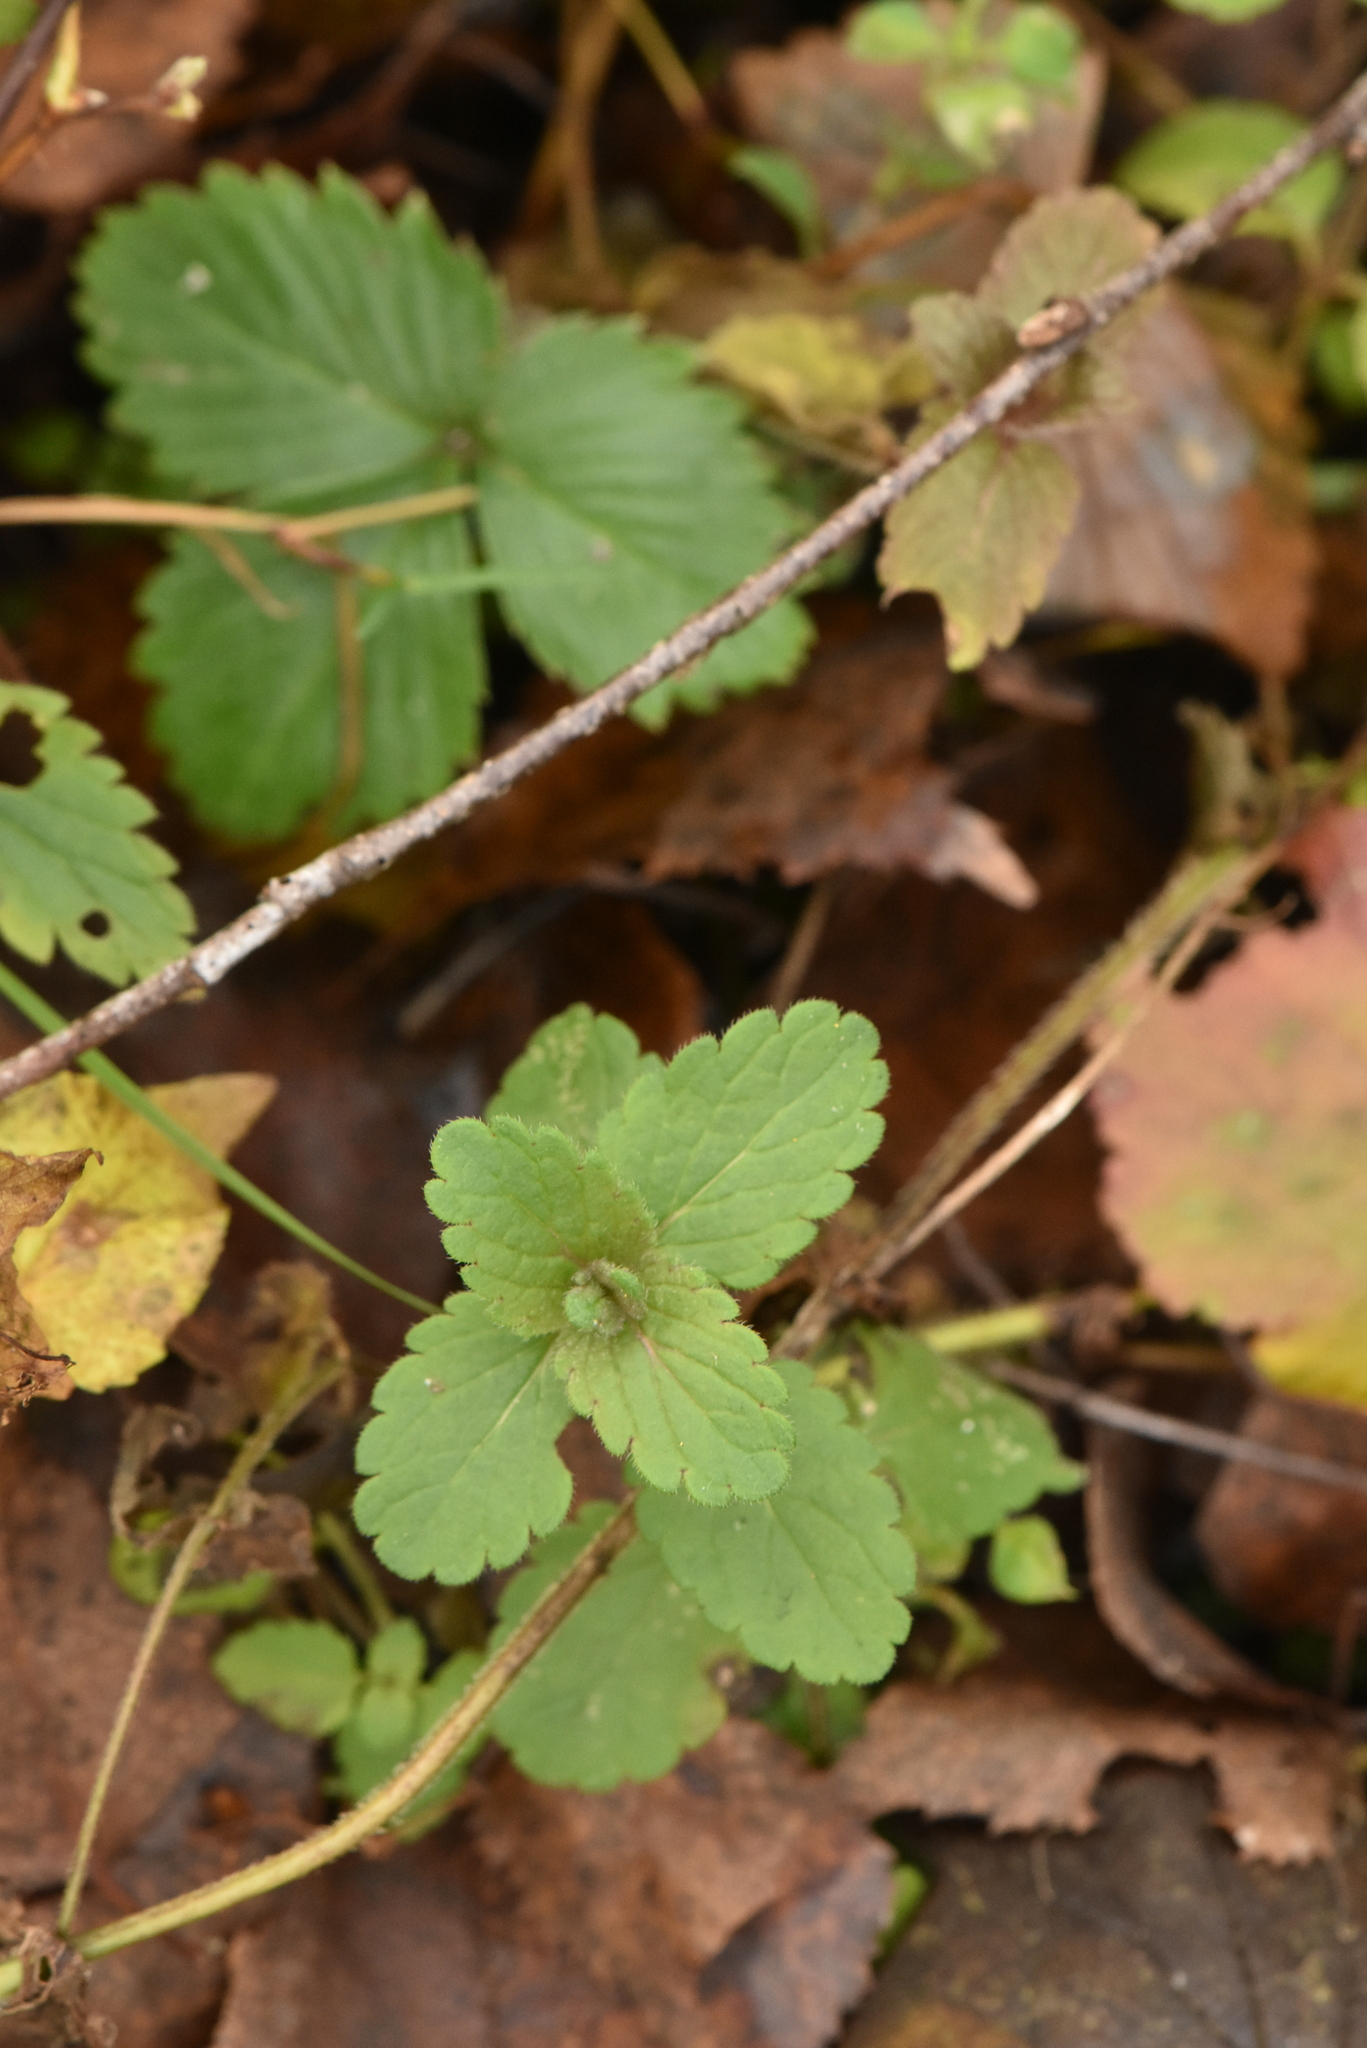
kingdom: Plantae
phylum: Tracheophyta
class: Magnoliopsida
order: Lamiales
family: Plantaginaceae
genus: Veronica
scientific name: Veronica chamaedrys
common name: Germander speedwell
